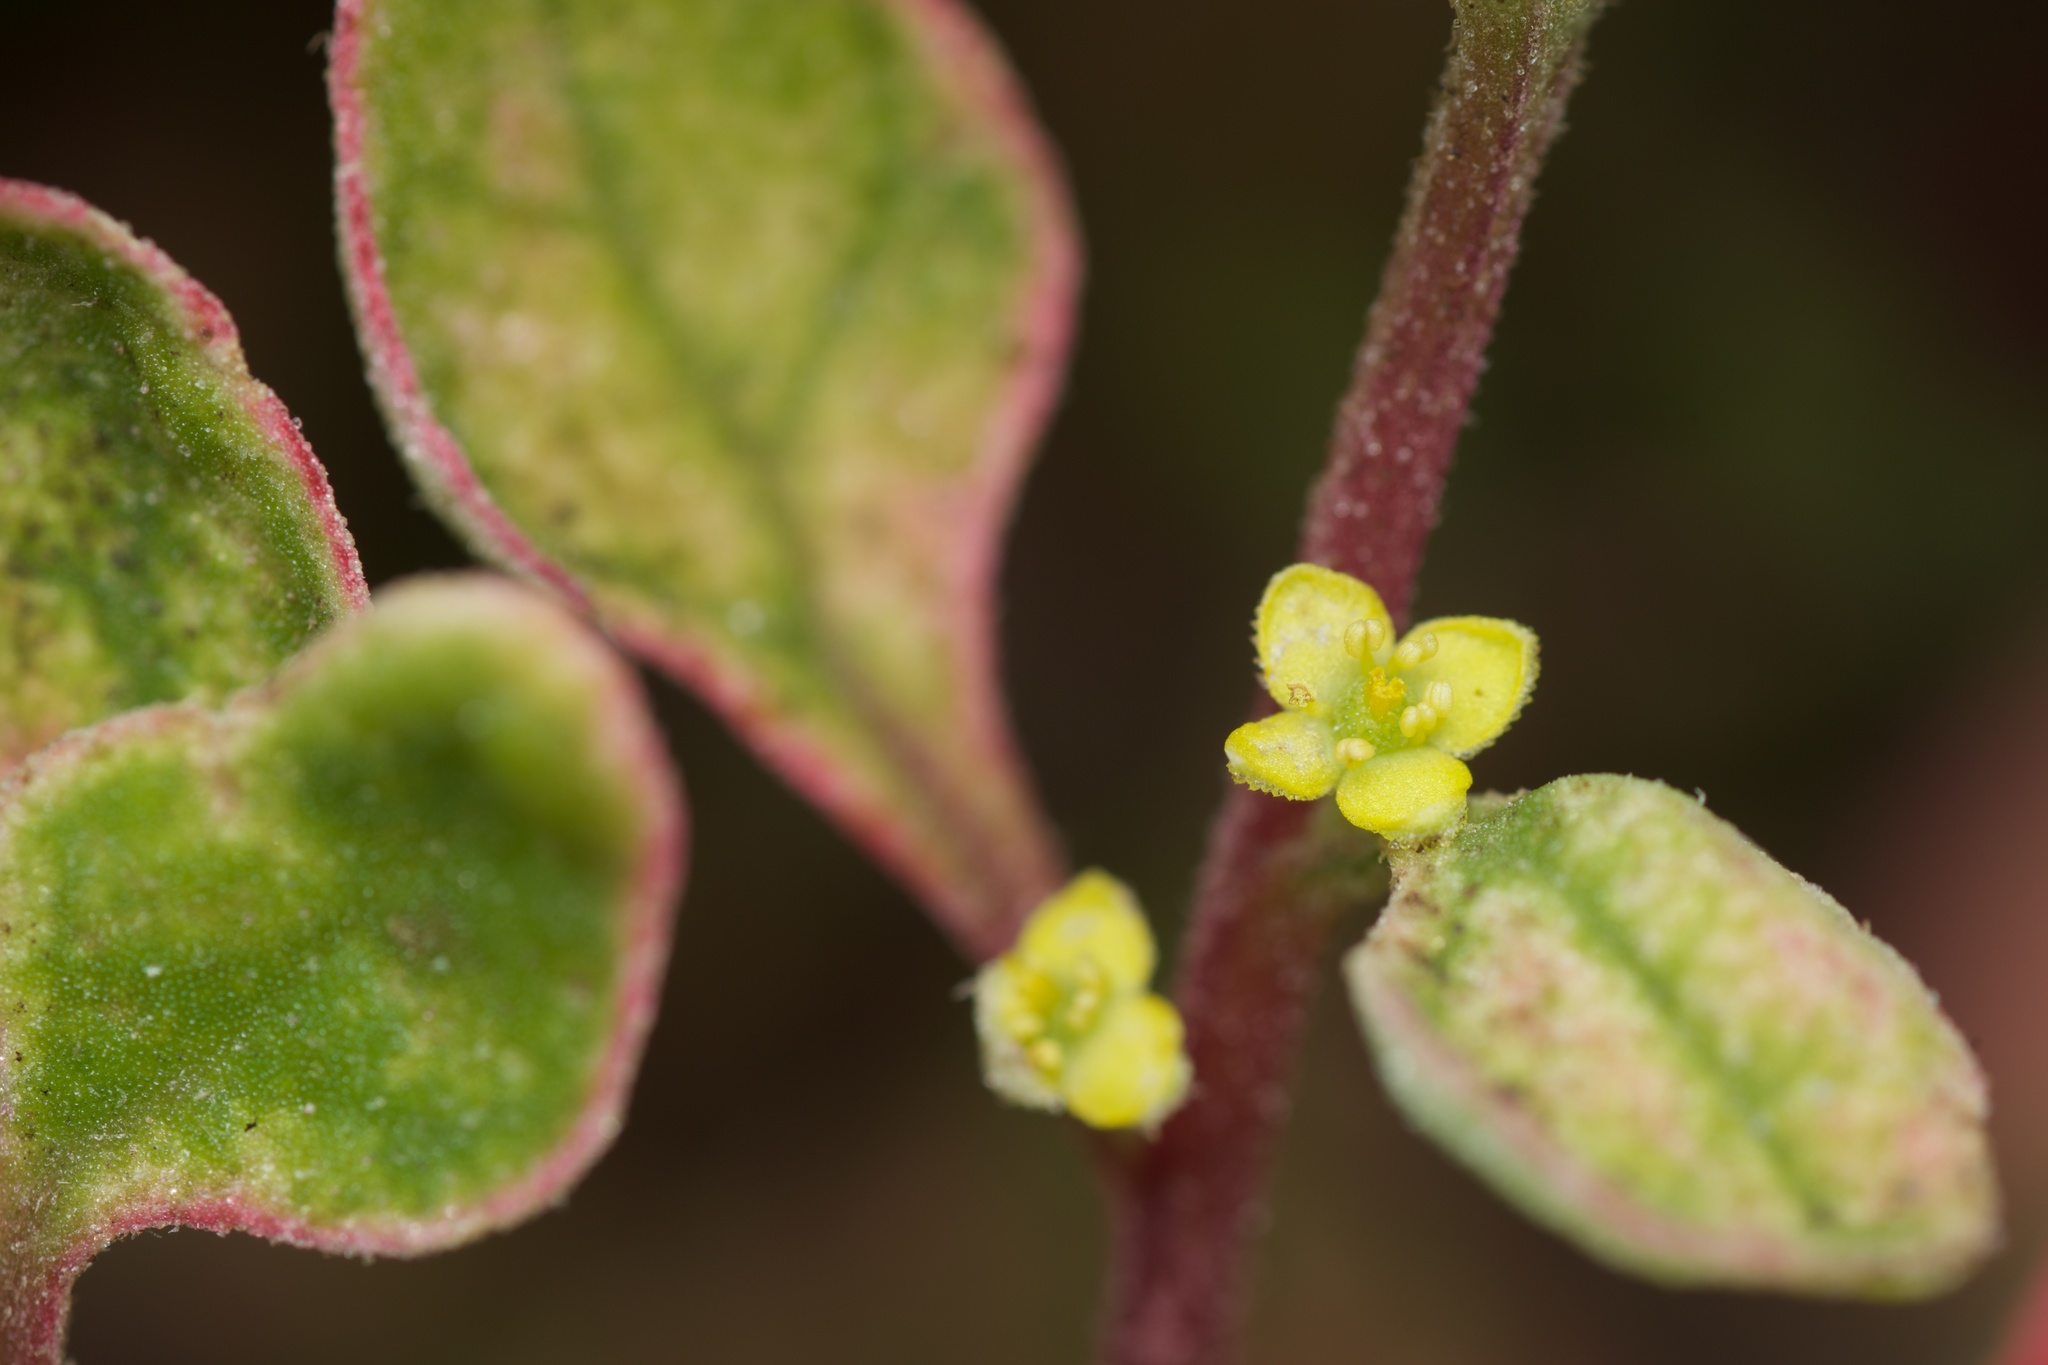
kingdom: Plantae
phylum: Tracheophyta
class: Magnoliopsida
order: Caryophyllales
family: Aizoaceae
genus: Tetragonia
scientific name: Tetragonia implexicoma
